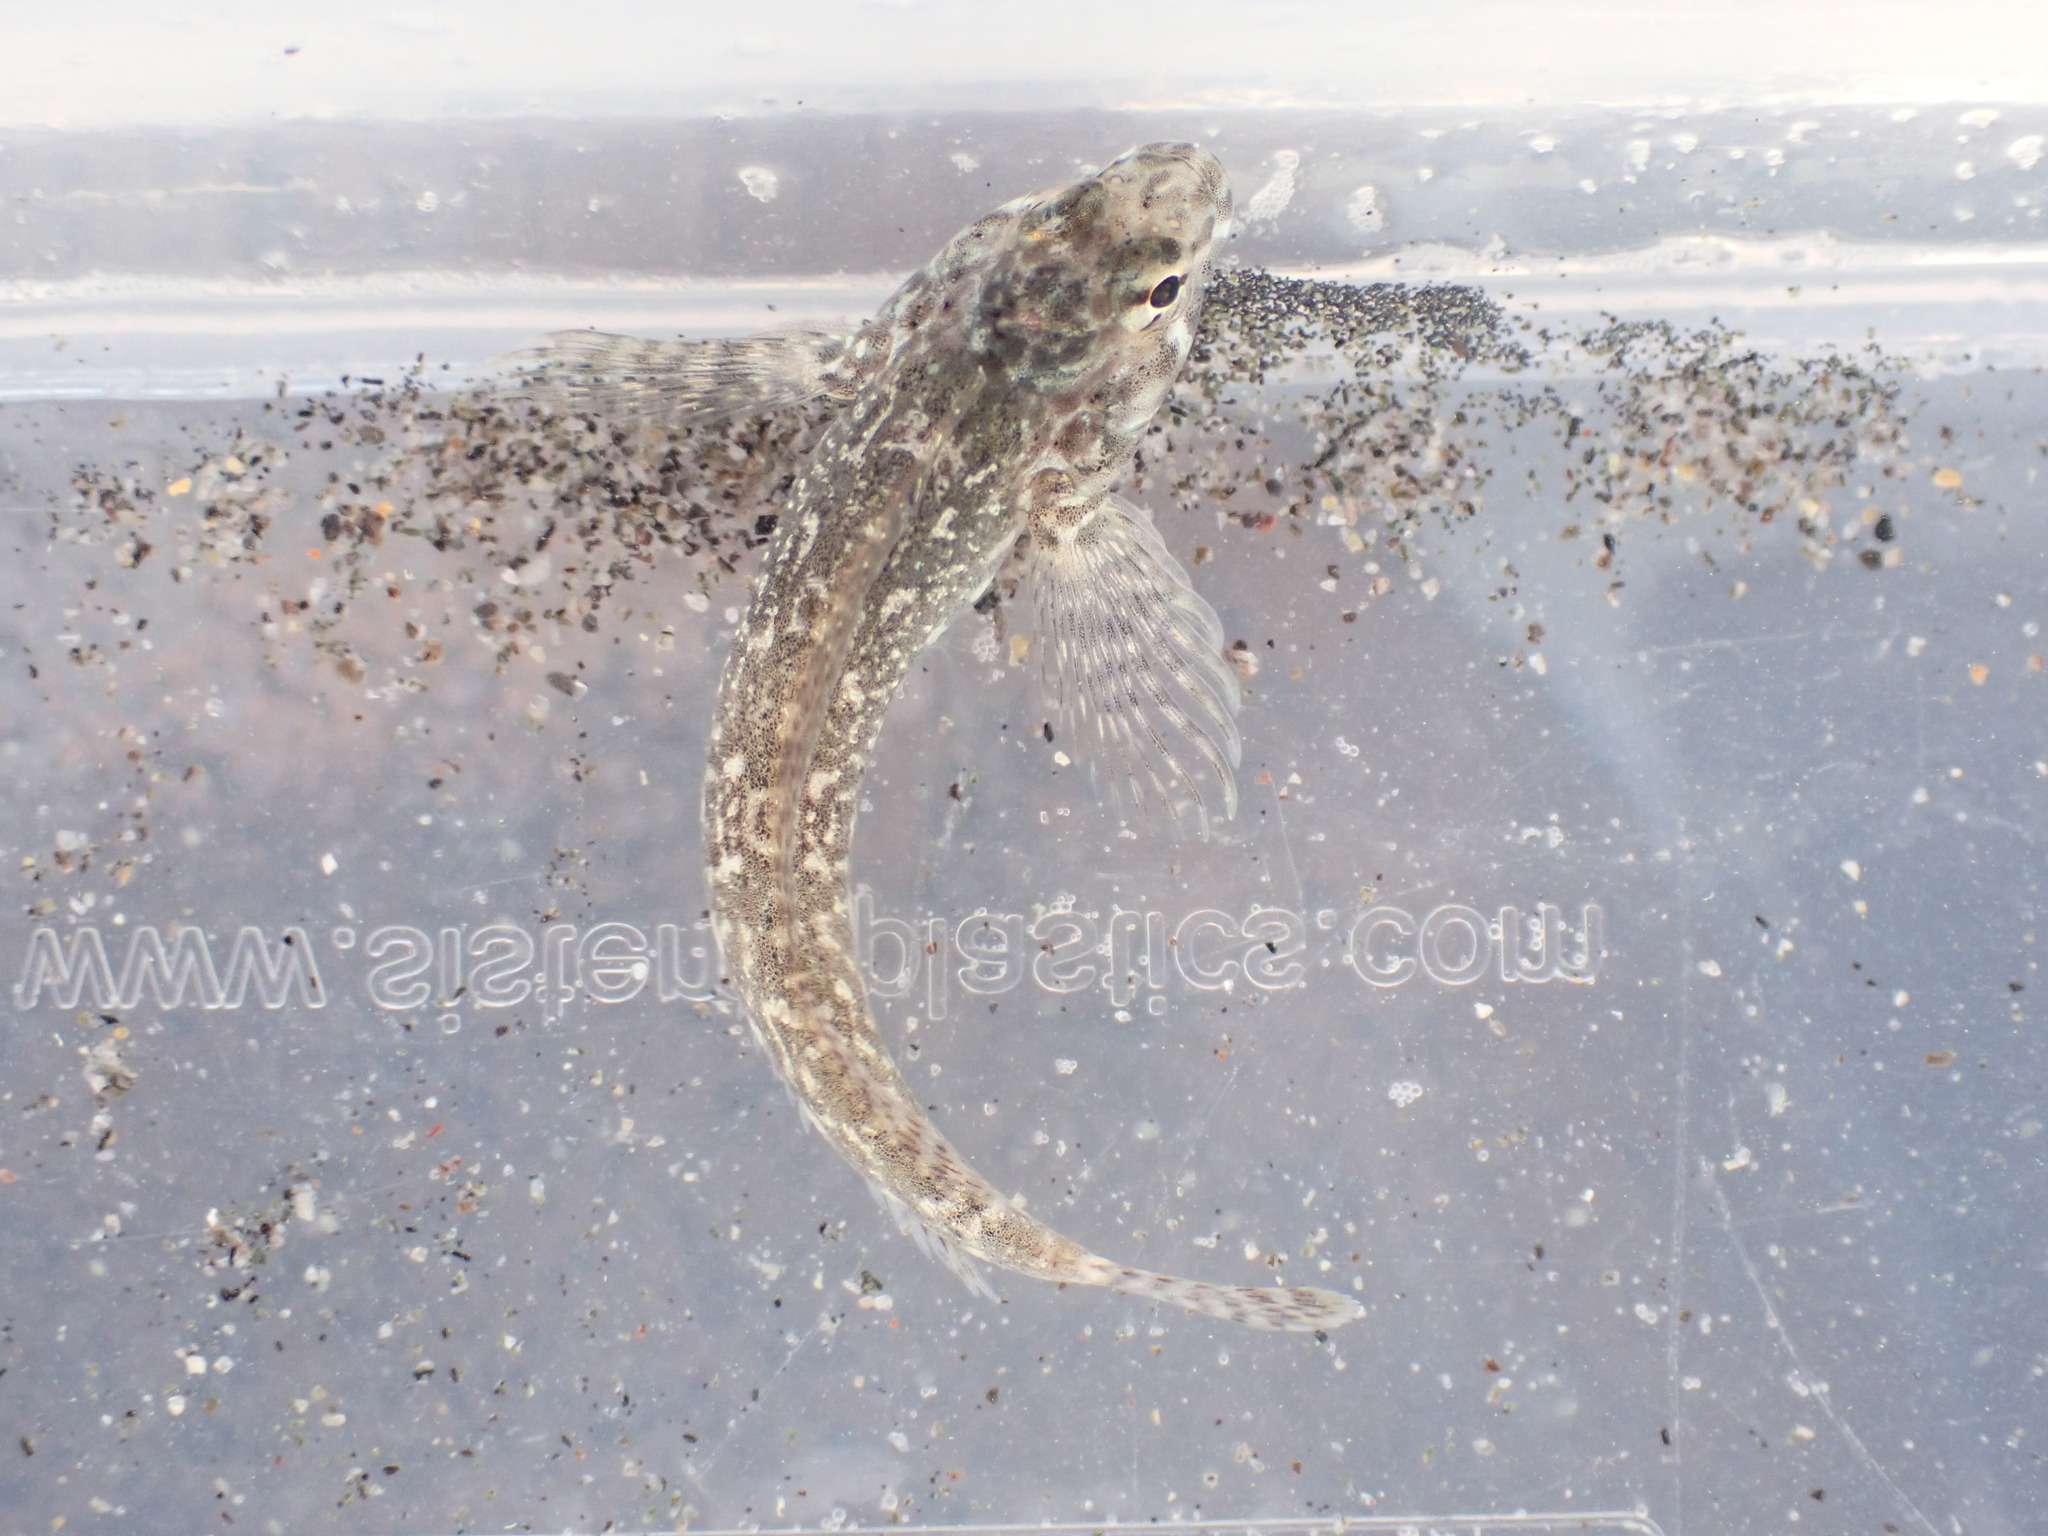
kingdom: Animalia
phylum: Chordata
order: Perciformes
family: Tripterygiidae
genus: Bellapiscis
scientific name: Bellapiscis medius
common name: Twister
